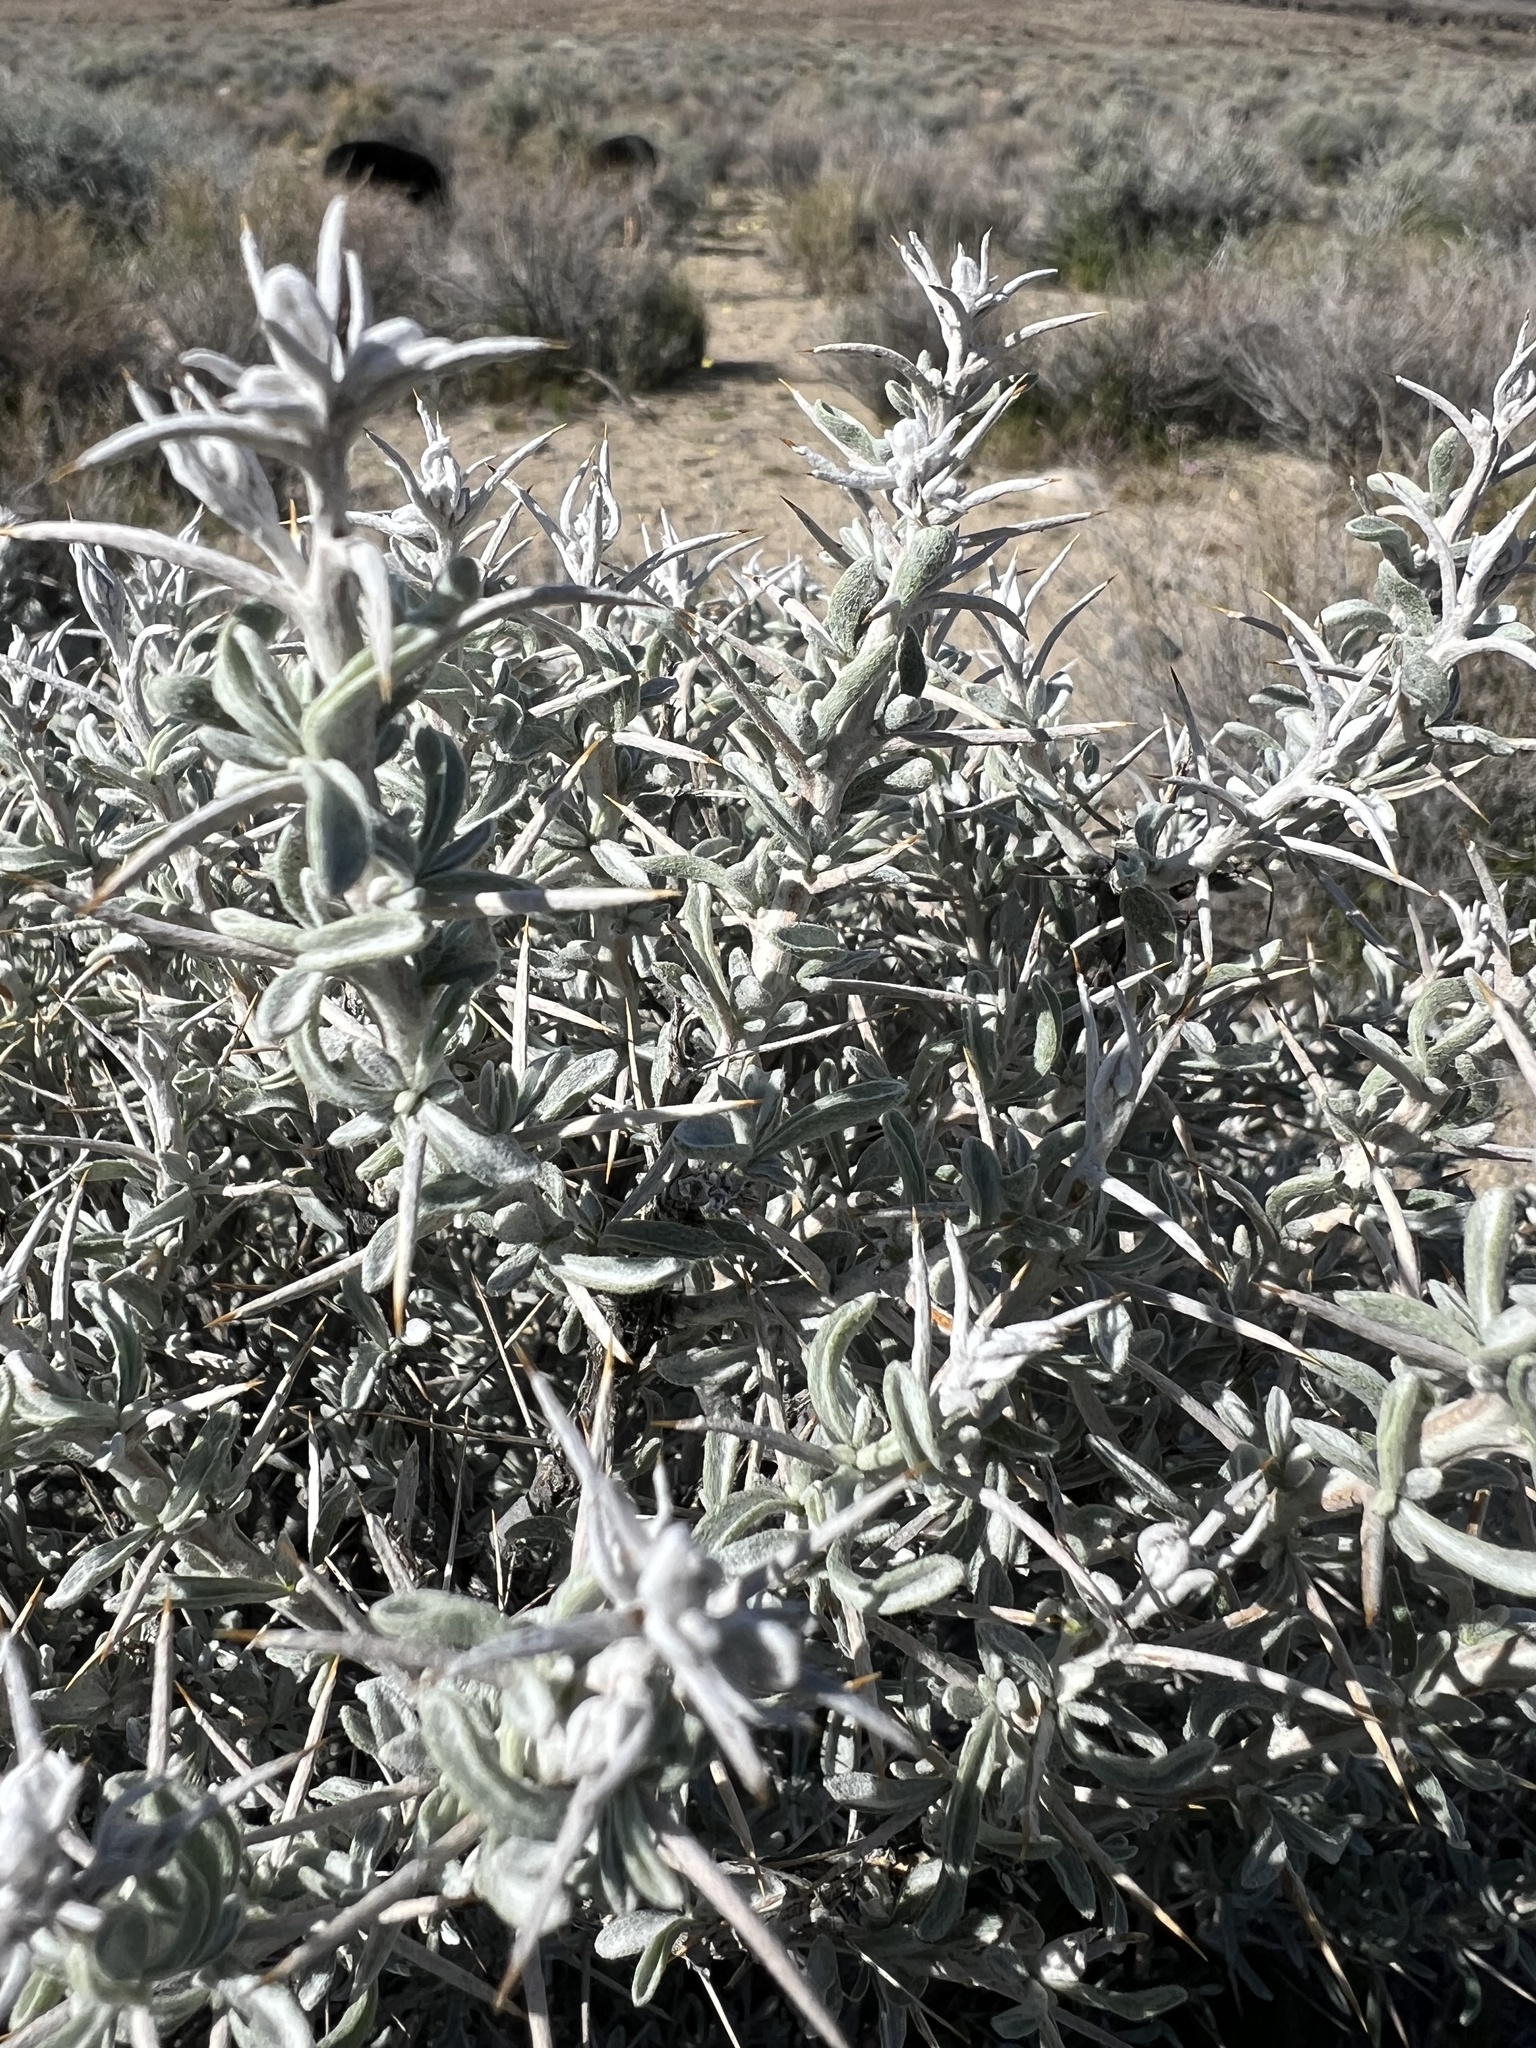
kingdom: Plantae
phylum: Tracheophyta
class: Magnoliopsida
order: Asterales
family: Asteraceae
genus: Tetradymia
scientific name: Tetradymia stenolepis
